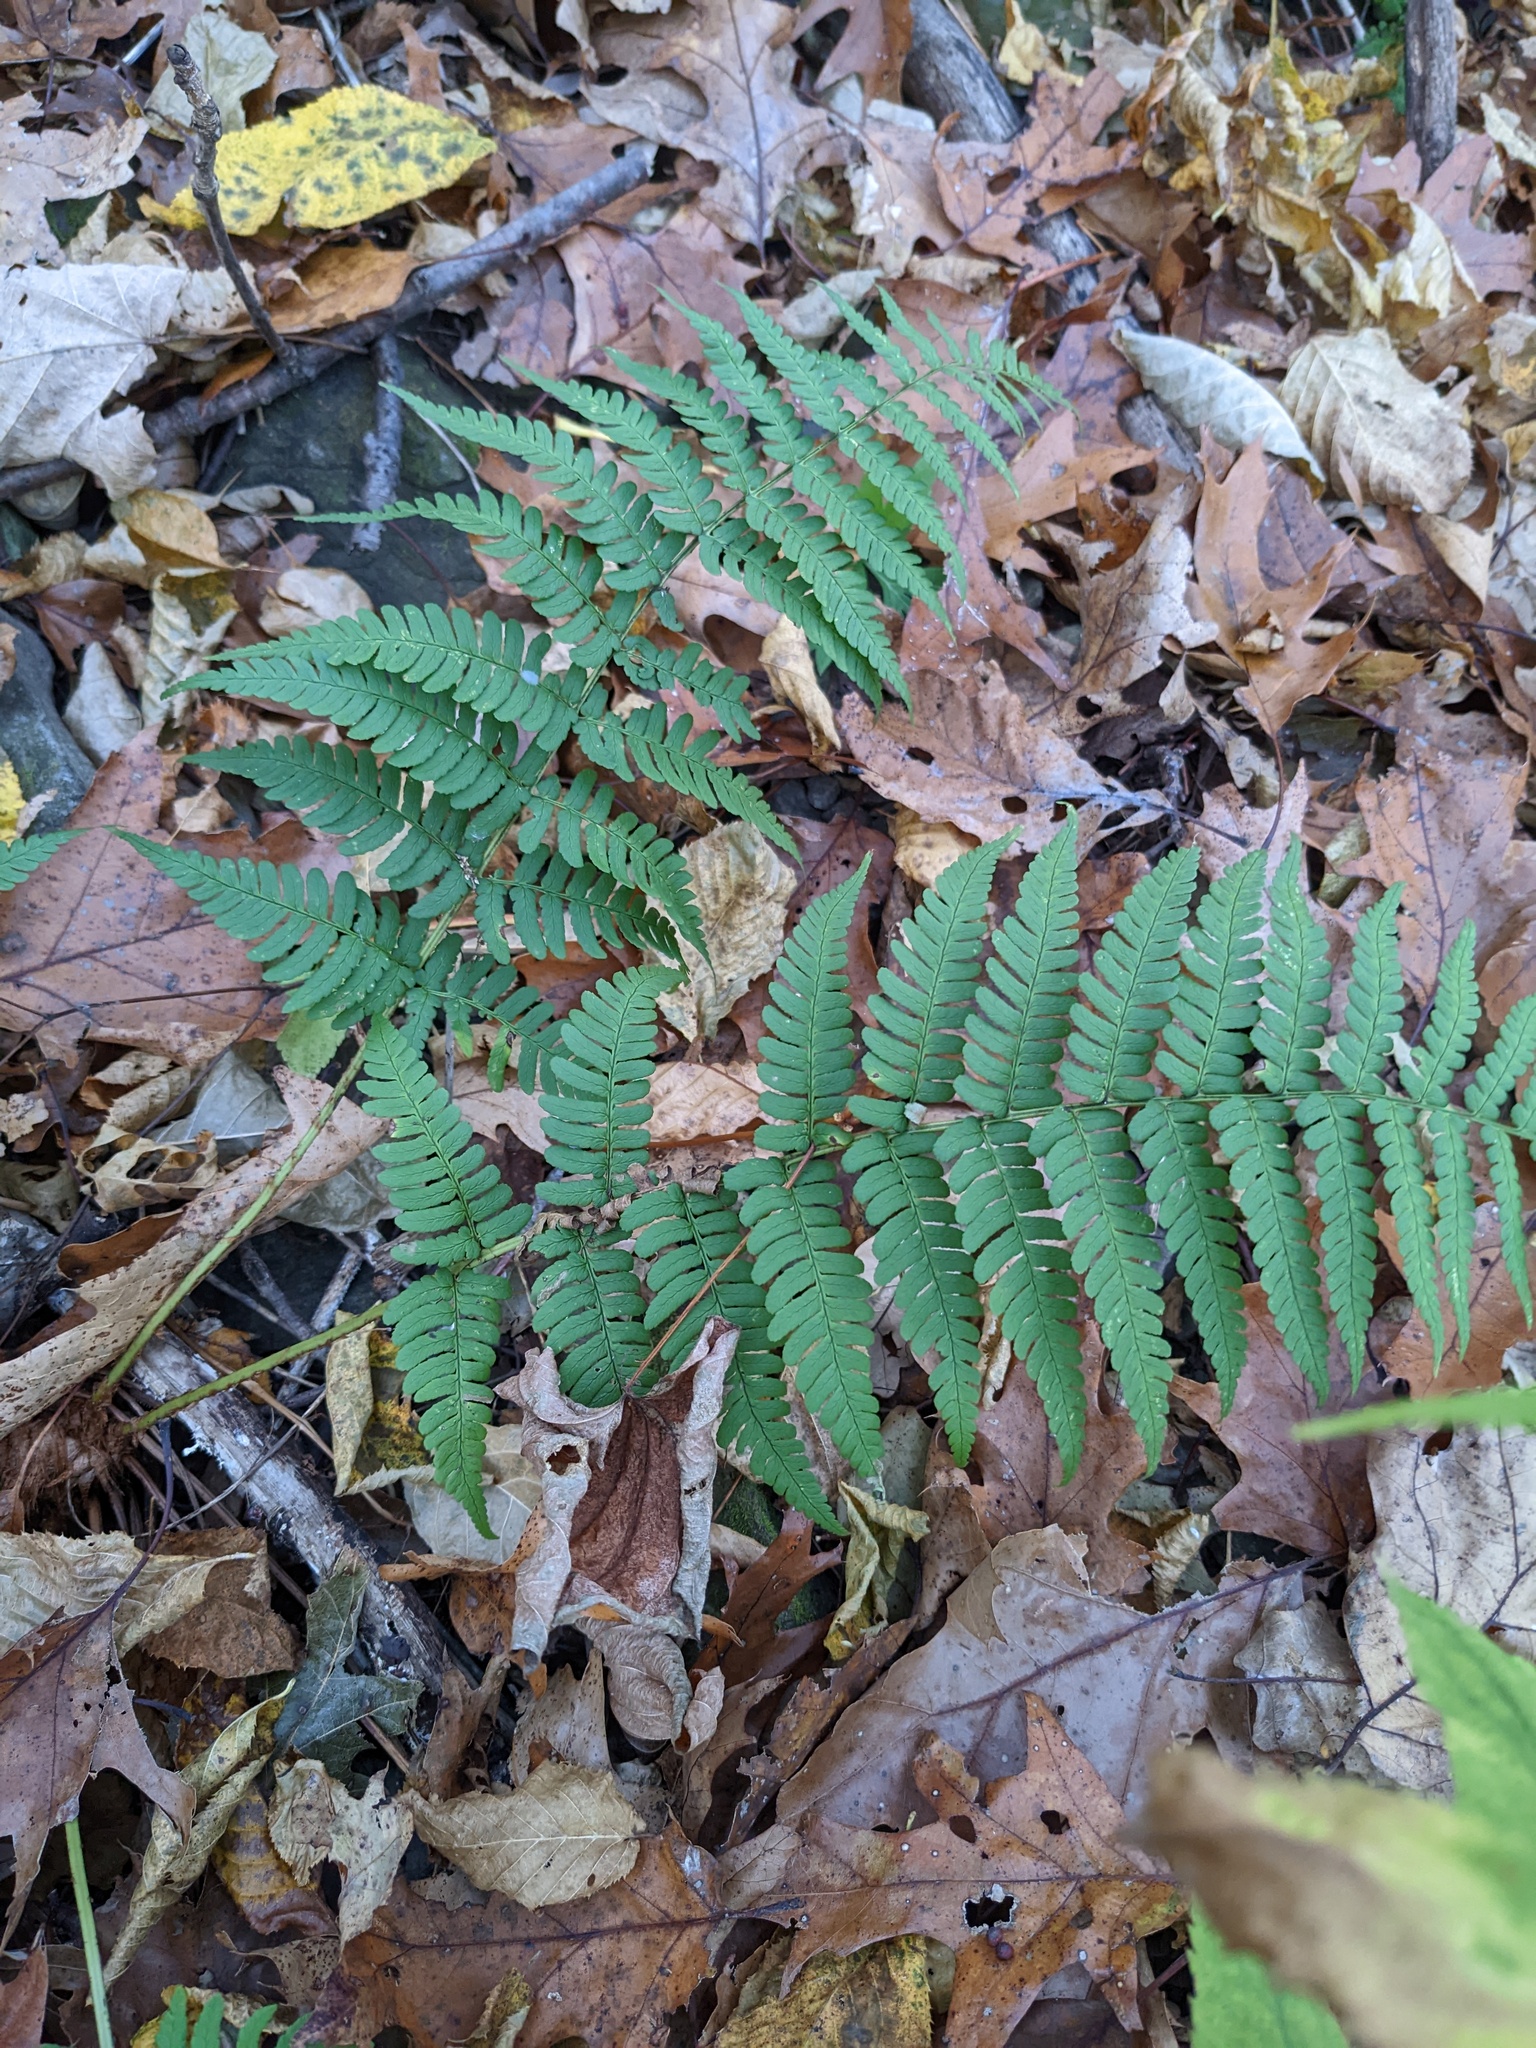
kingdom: Plantae
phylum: Tracheophyta
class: Polypodiopsida
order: Polypodiales
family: Dryopteridaceae
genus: Dryopteris
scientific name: Dryopteris marginalis
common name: Marginal wood fern
